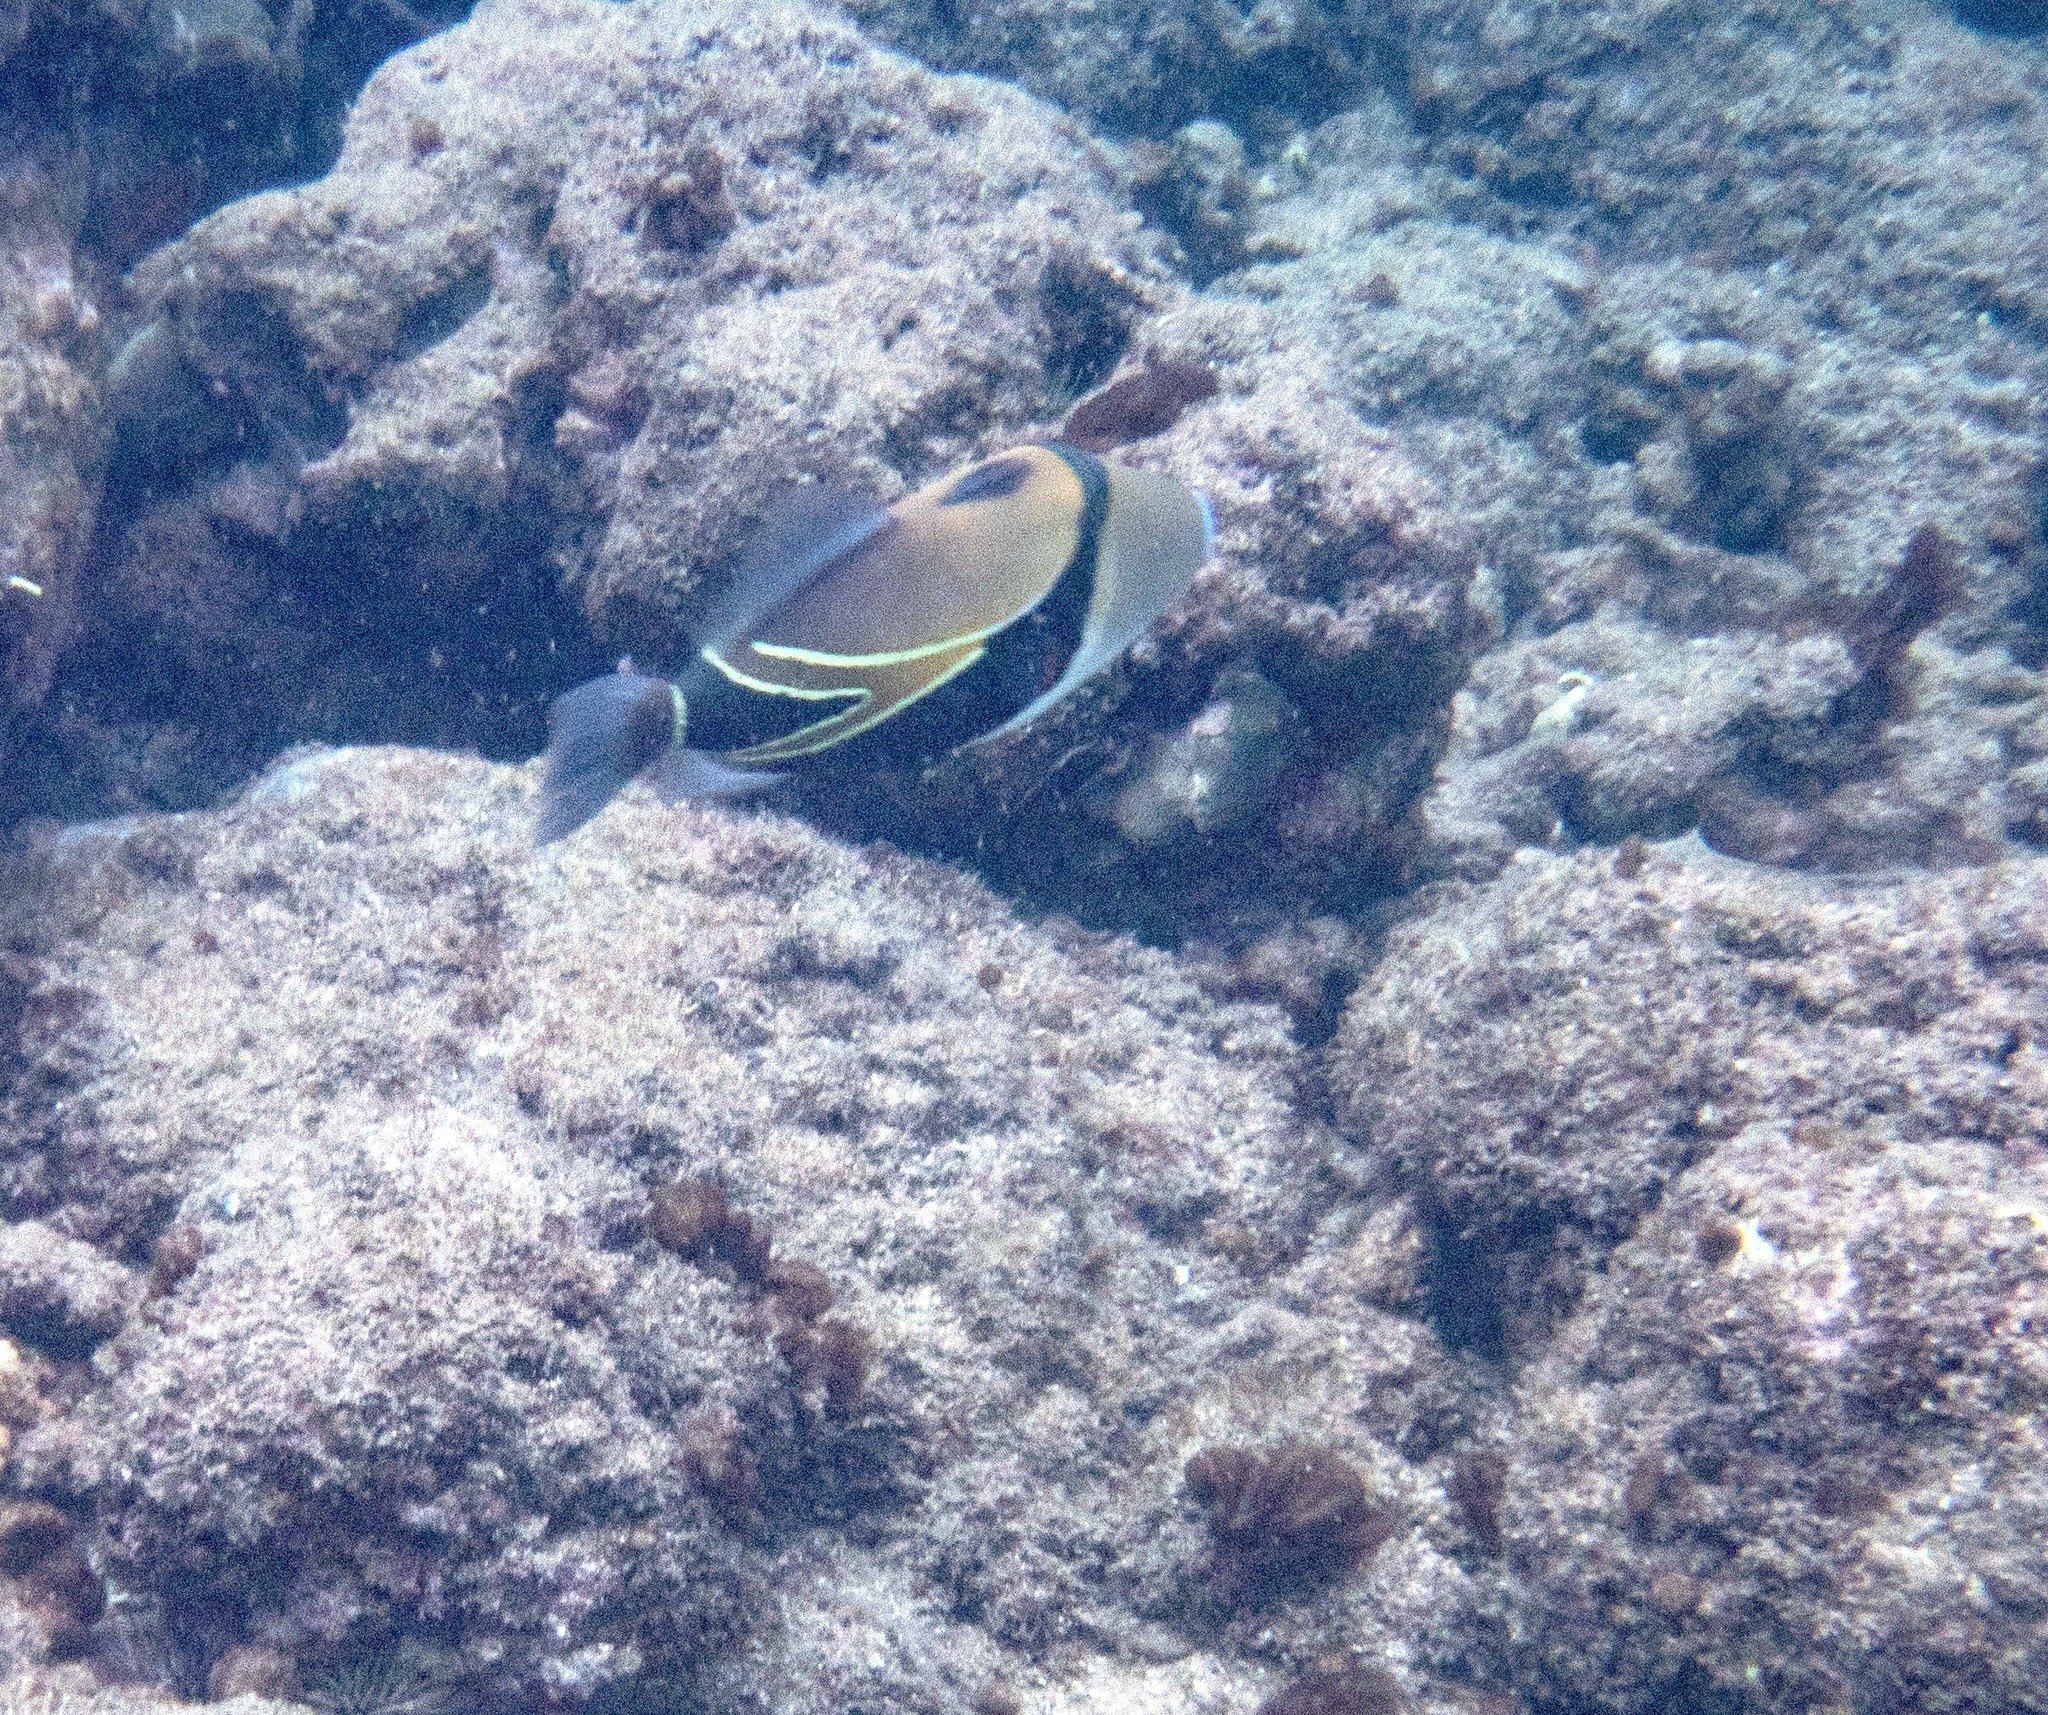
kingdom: Animalia
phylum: Chordata
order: Tetraodontiformes
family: Balistidae
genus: Rhinecanthus
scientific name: Rhinecanthus rectangulus
